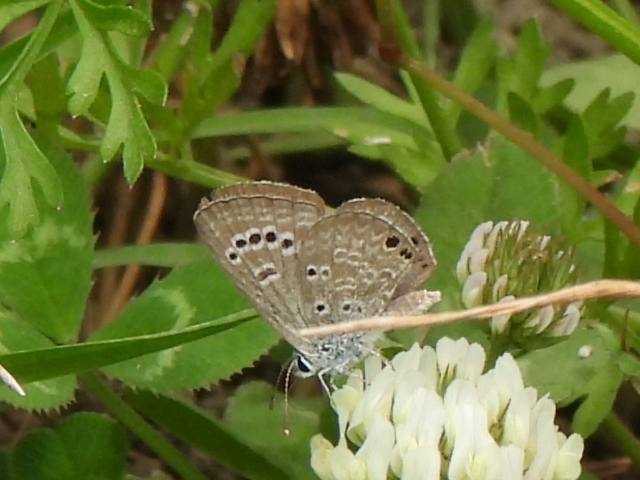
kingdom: Animalia
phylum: Arthropoda
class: Insecta
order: Lepidoptera
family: Lycaenidae
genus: Echinargus
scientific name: Echinargus isola
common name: Reakirt's blue
